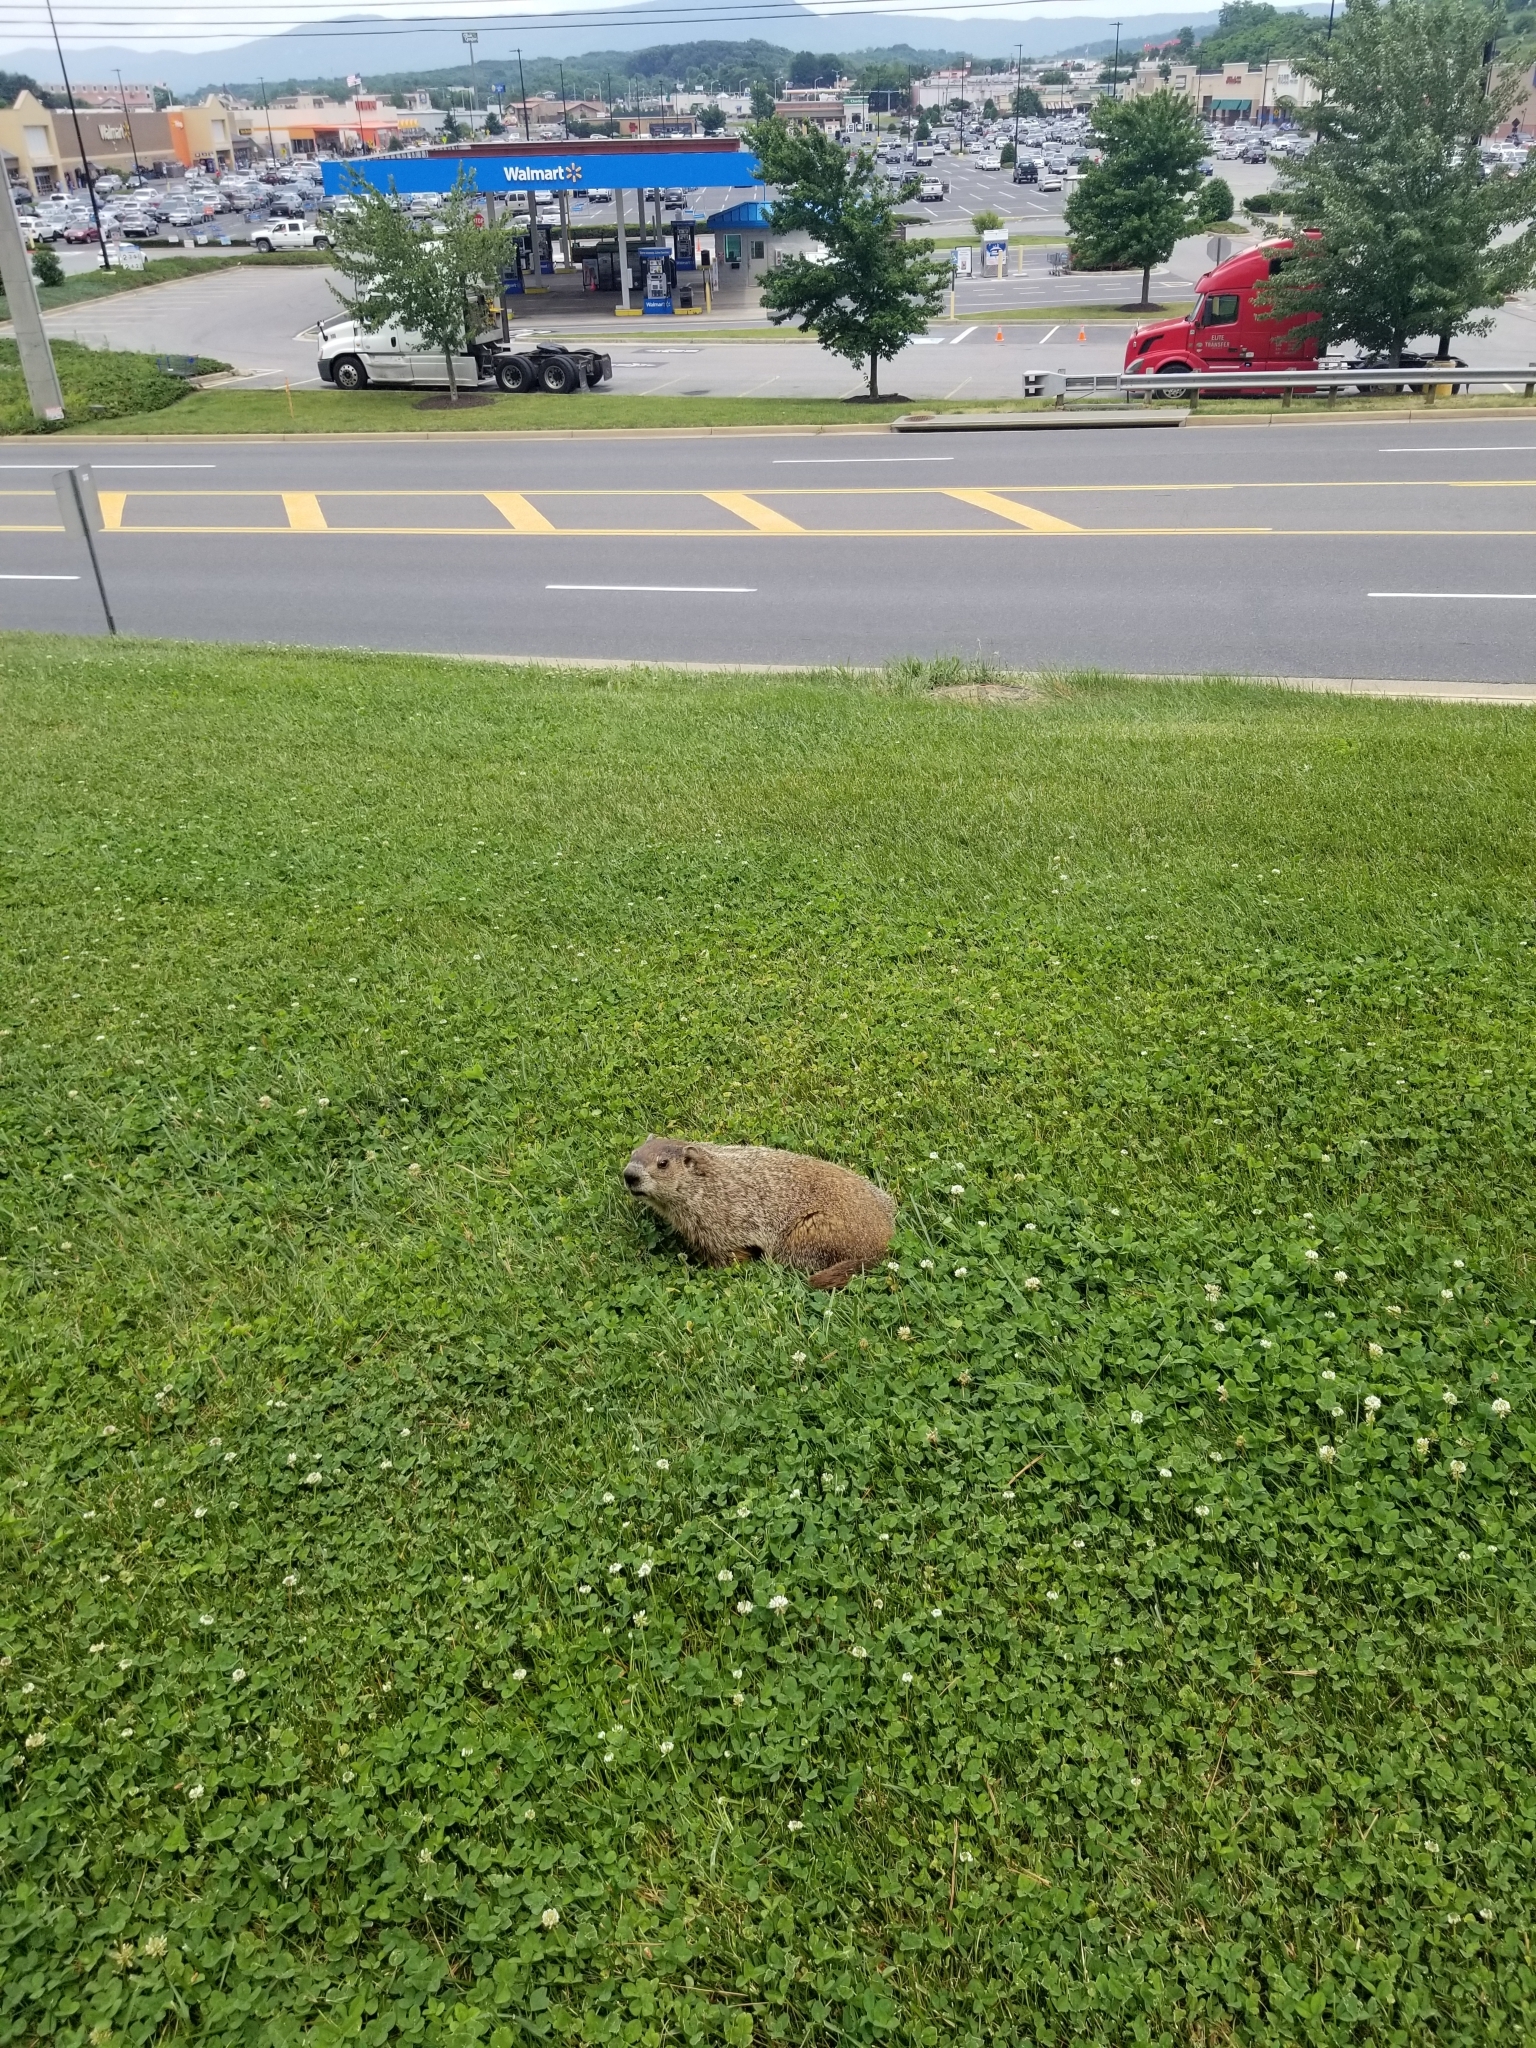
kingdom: Animalia
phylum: Chordata
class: Mammalia
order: Rodentia
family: Sciuridae
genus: Marmota
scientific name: Marmota monax
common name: Groundhog
